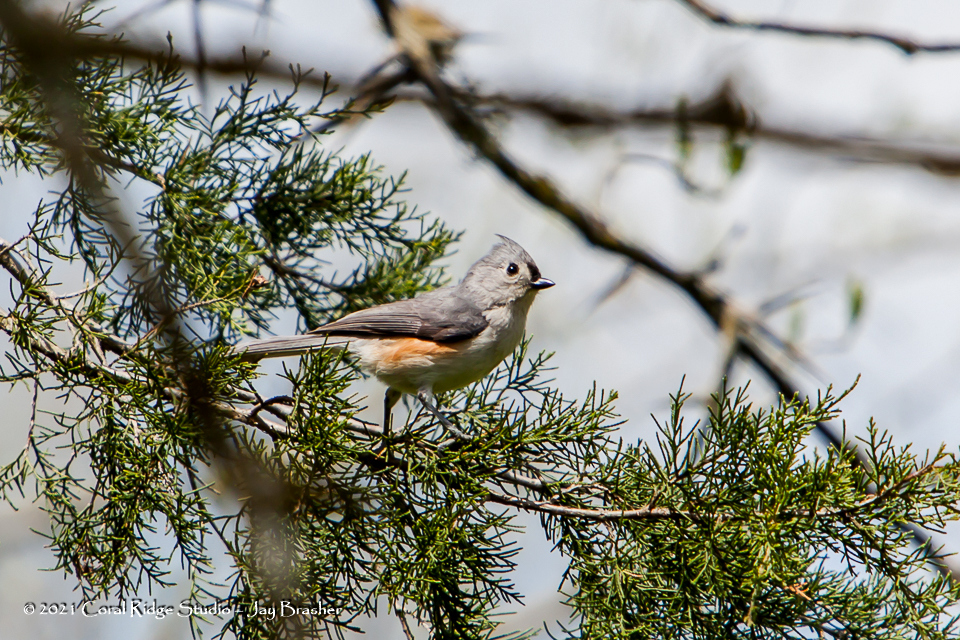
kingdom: Animalia
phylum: Chordata
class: Aves
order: Passeriformes
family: Paridae
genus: Baeolophus
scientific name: Baeolophus bicolor
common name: Tufted titmouse
